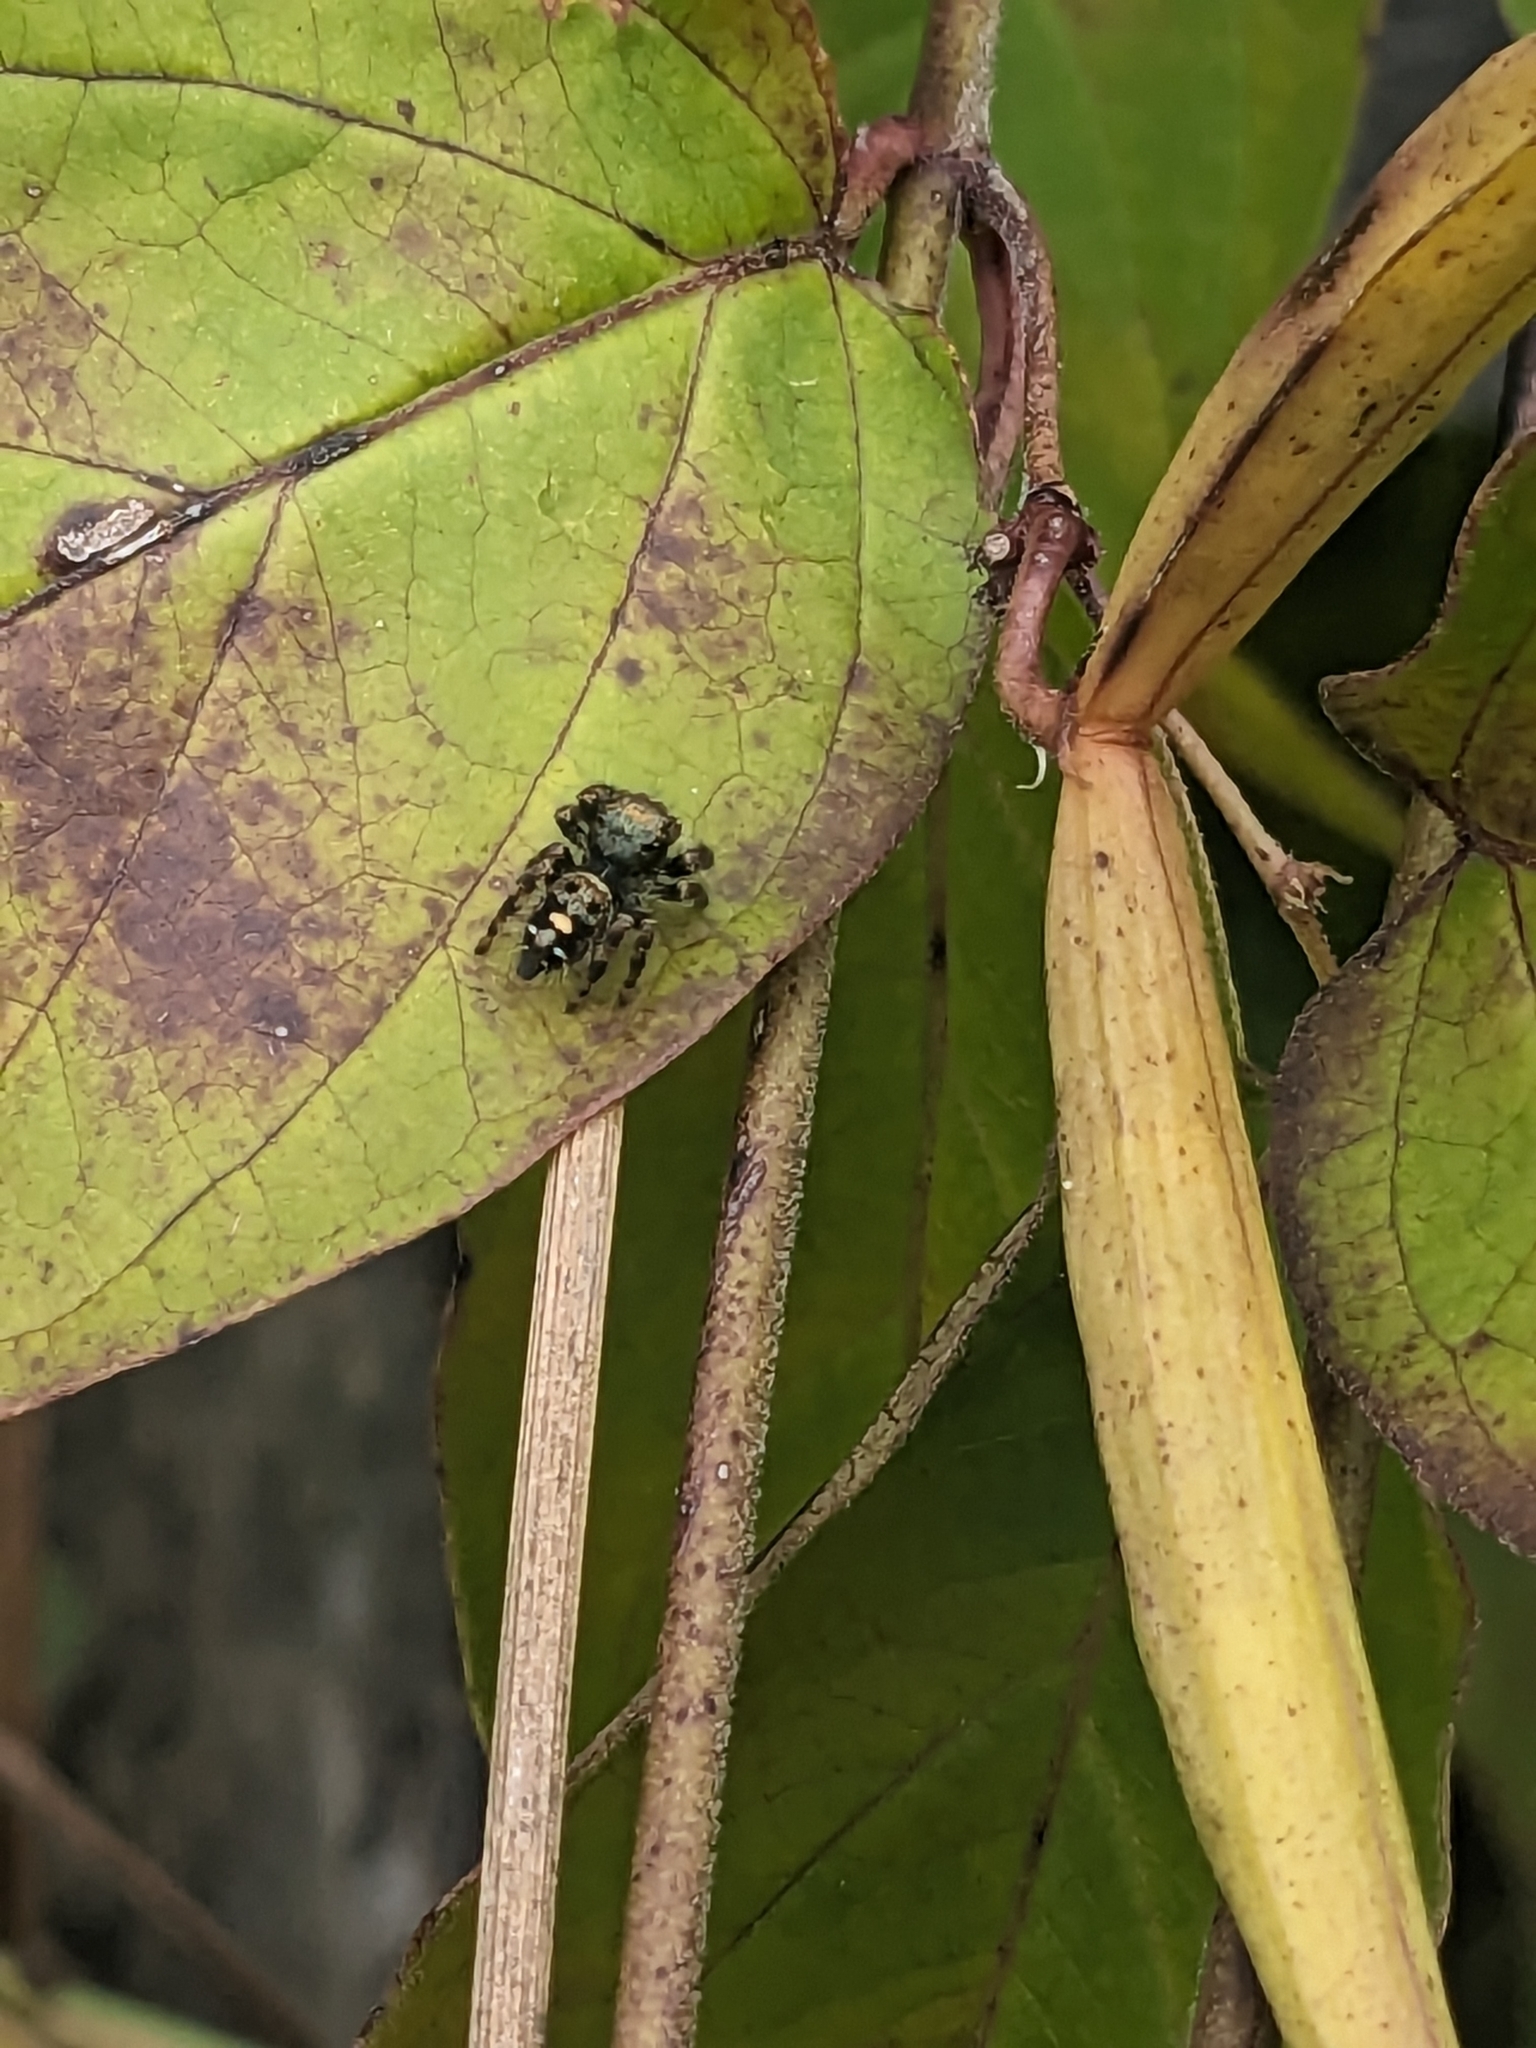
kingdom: Animalia
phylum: Arthropoda
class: Arachnida
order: Araneae
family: Salticidae
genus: Phidippus
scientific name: Phidippus audax
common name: Bold jumper
